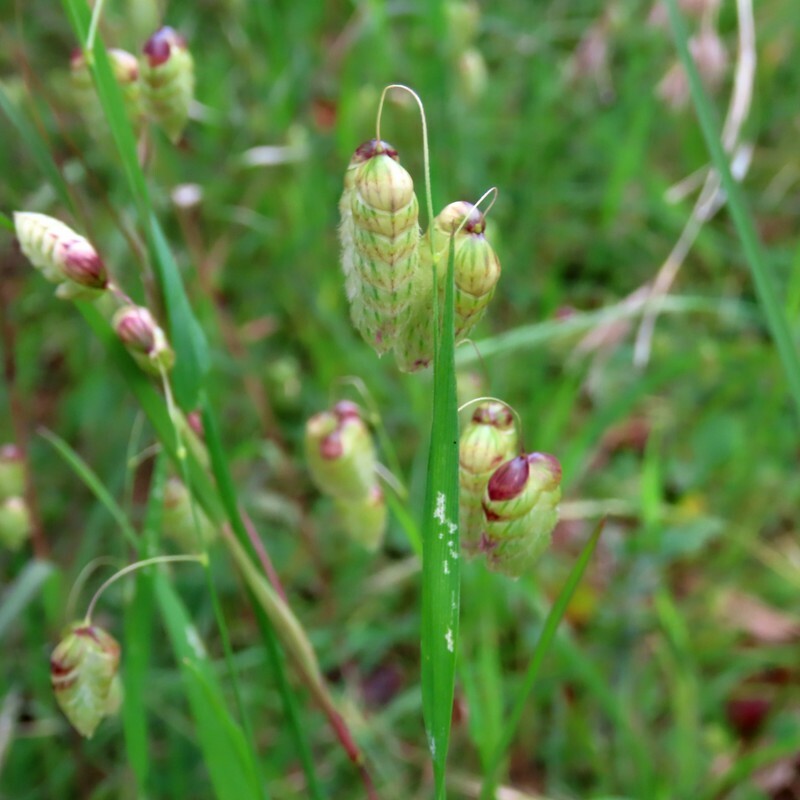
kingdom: Plantae
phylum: Tracheophyta
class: Liliopsida
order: Poales
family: Poaceae
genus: Briza
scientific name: Briza maxima
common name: Big quakinggrass
